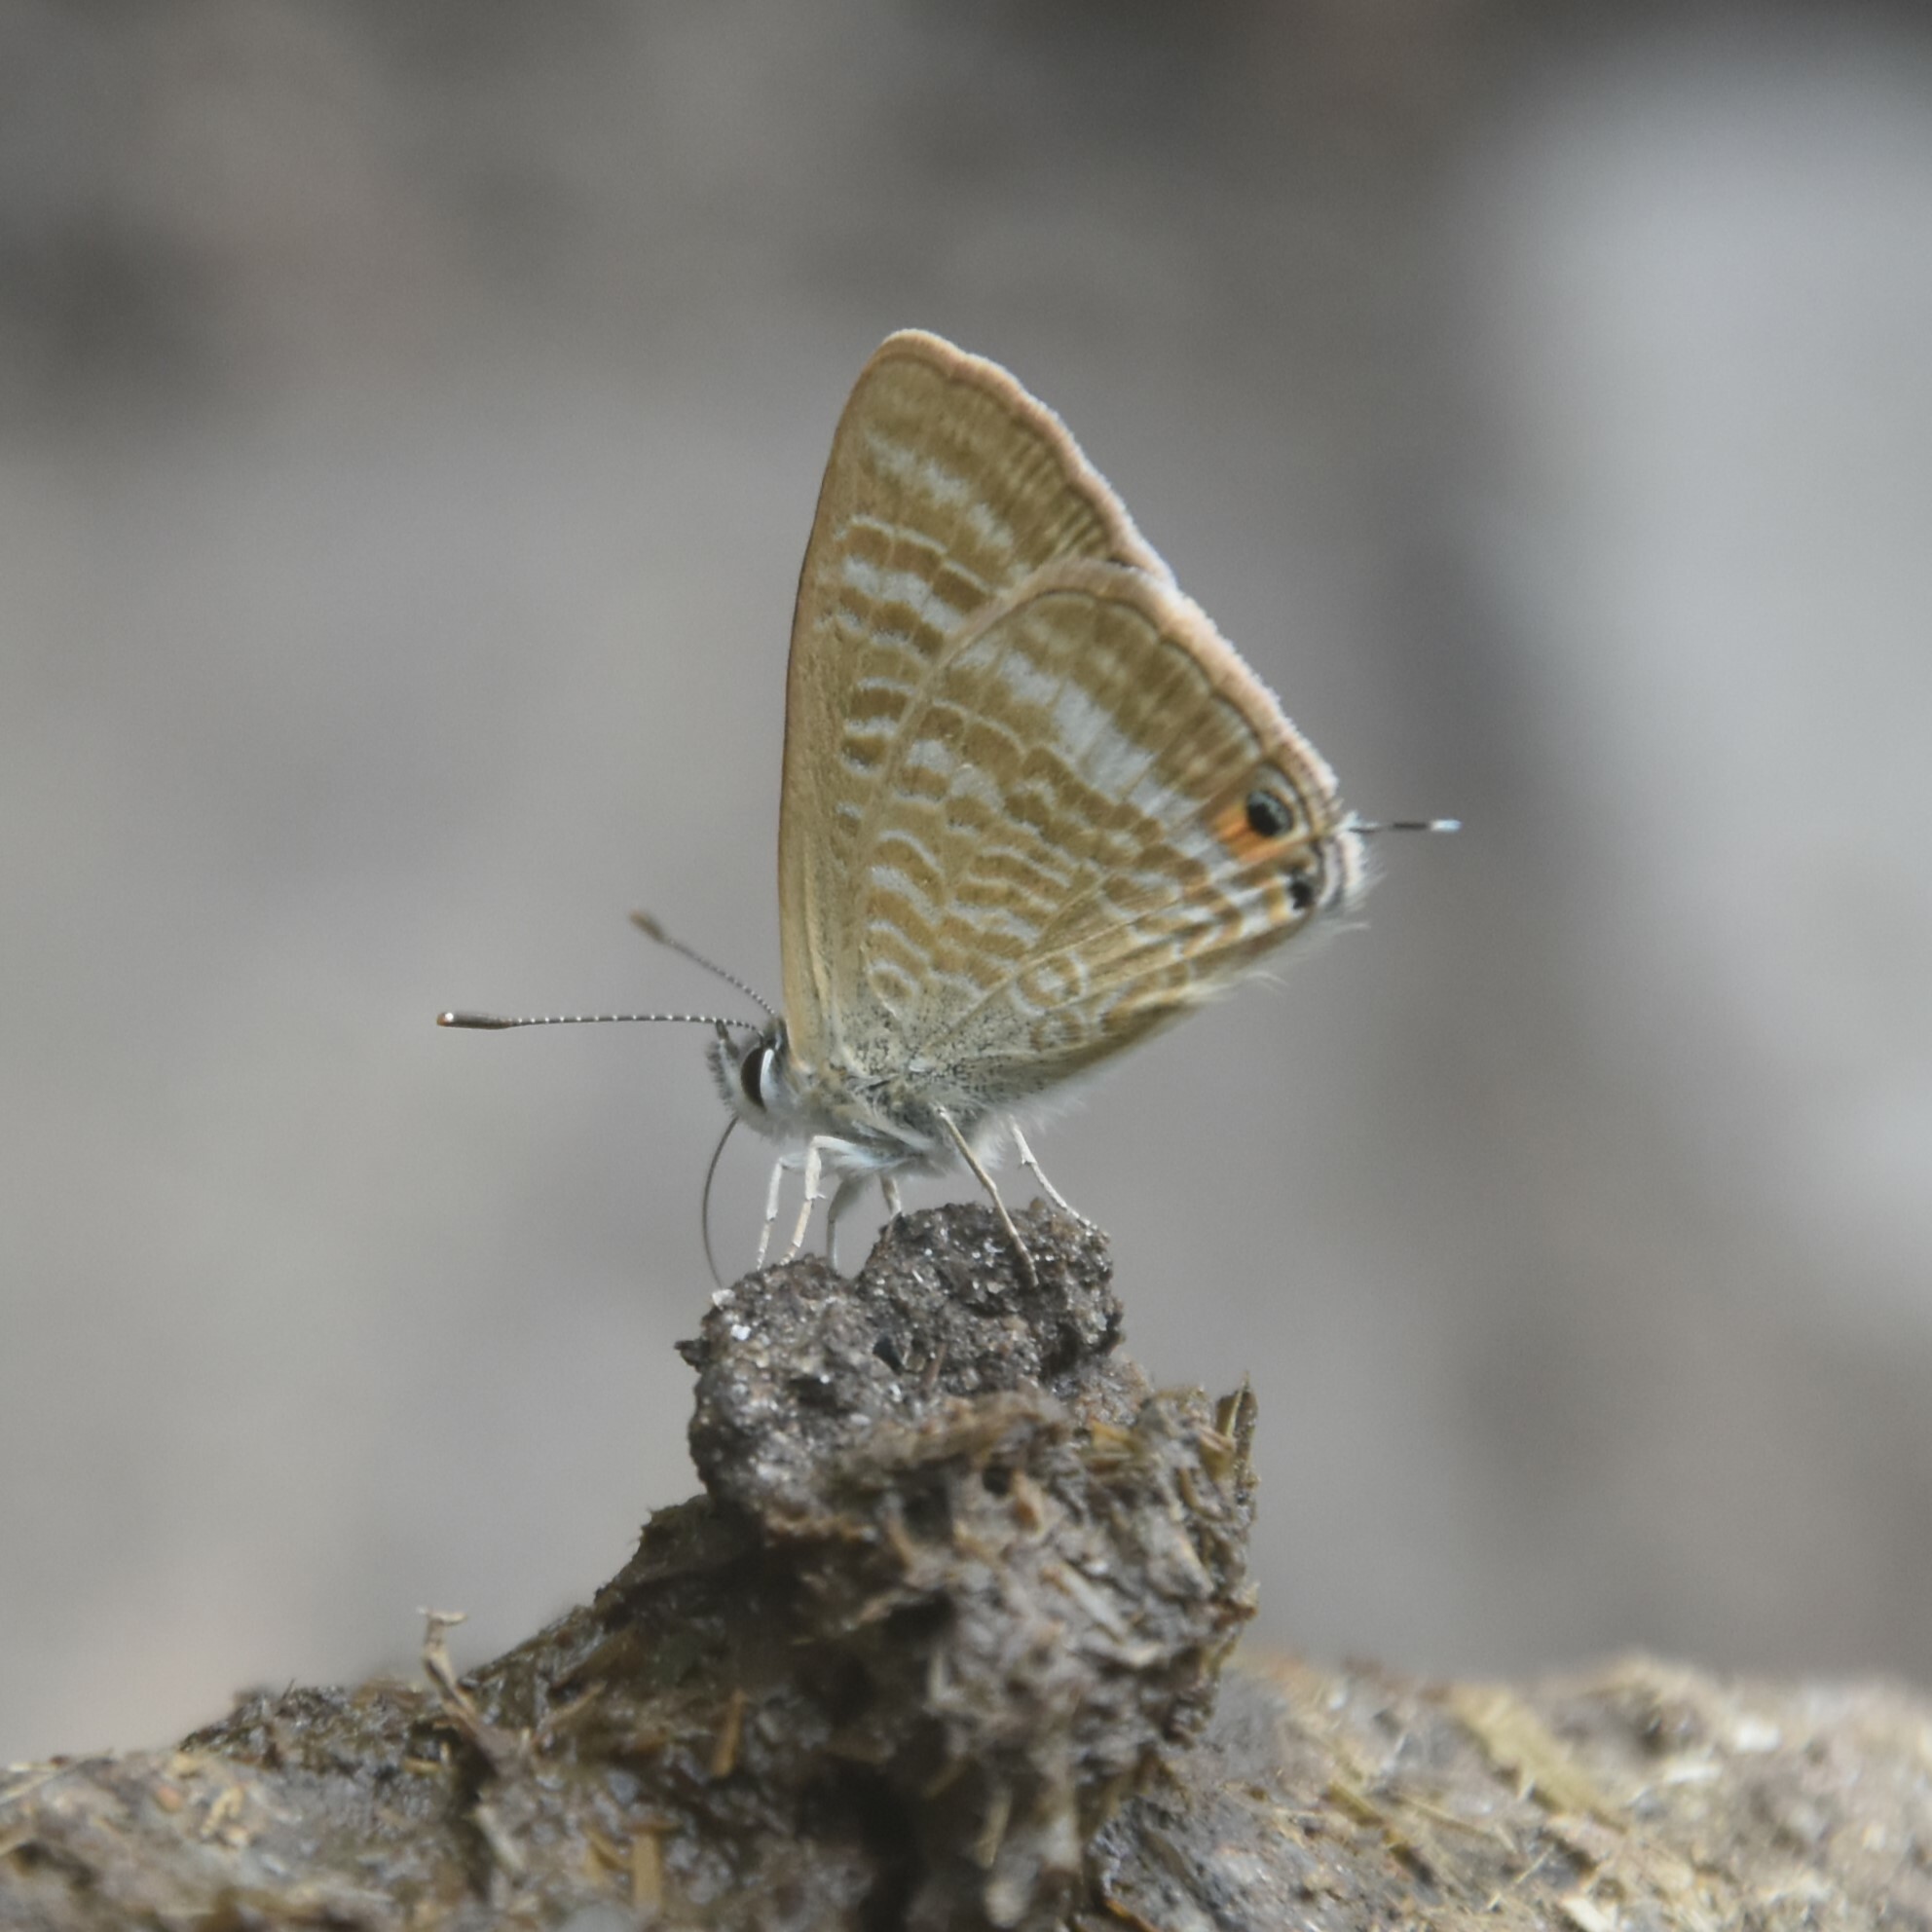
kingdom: Animalia
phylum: Arthropoda
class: Insecta
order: Lepidoptera
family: Lycaenidae
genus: Lampides
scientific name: Lampides boeticus
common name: Long-tailed blue
